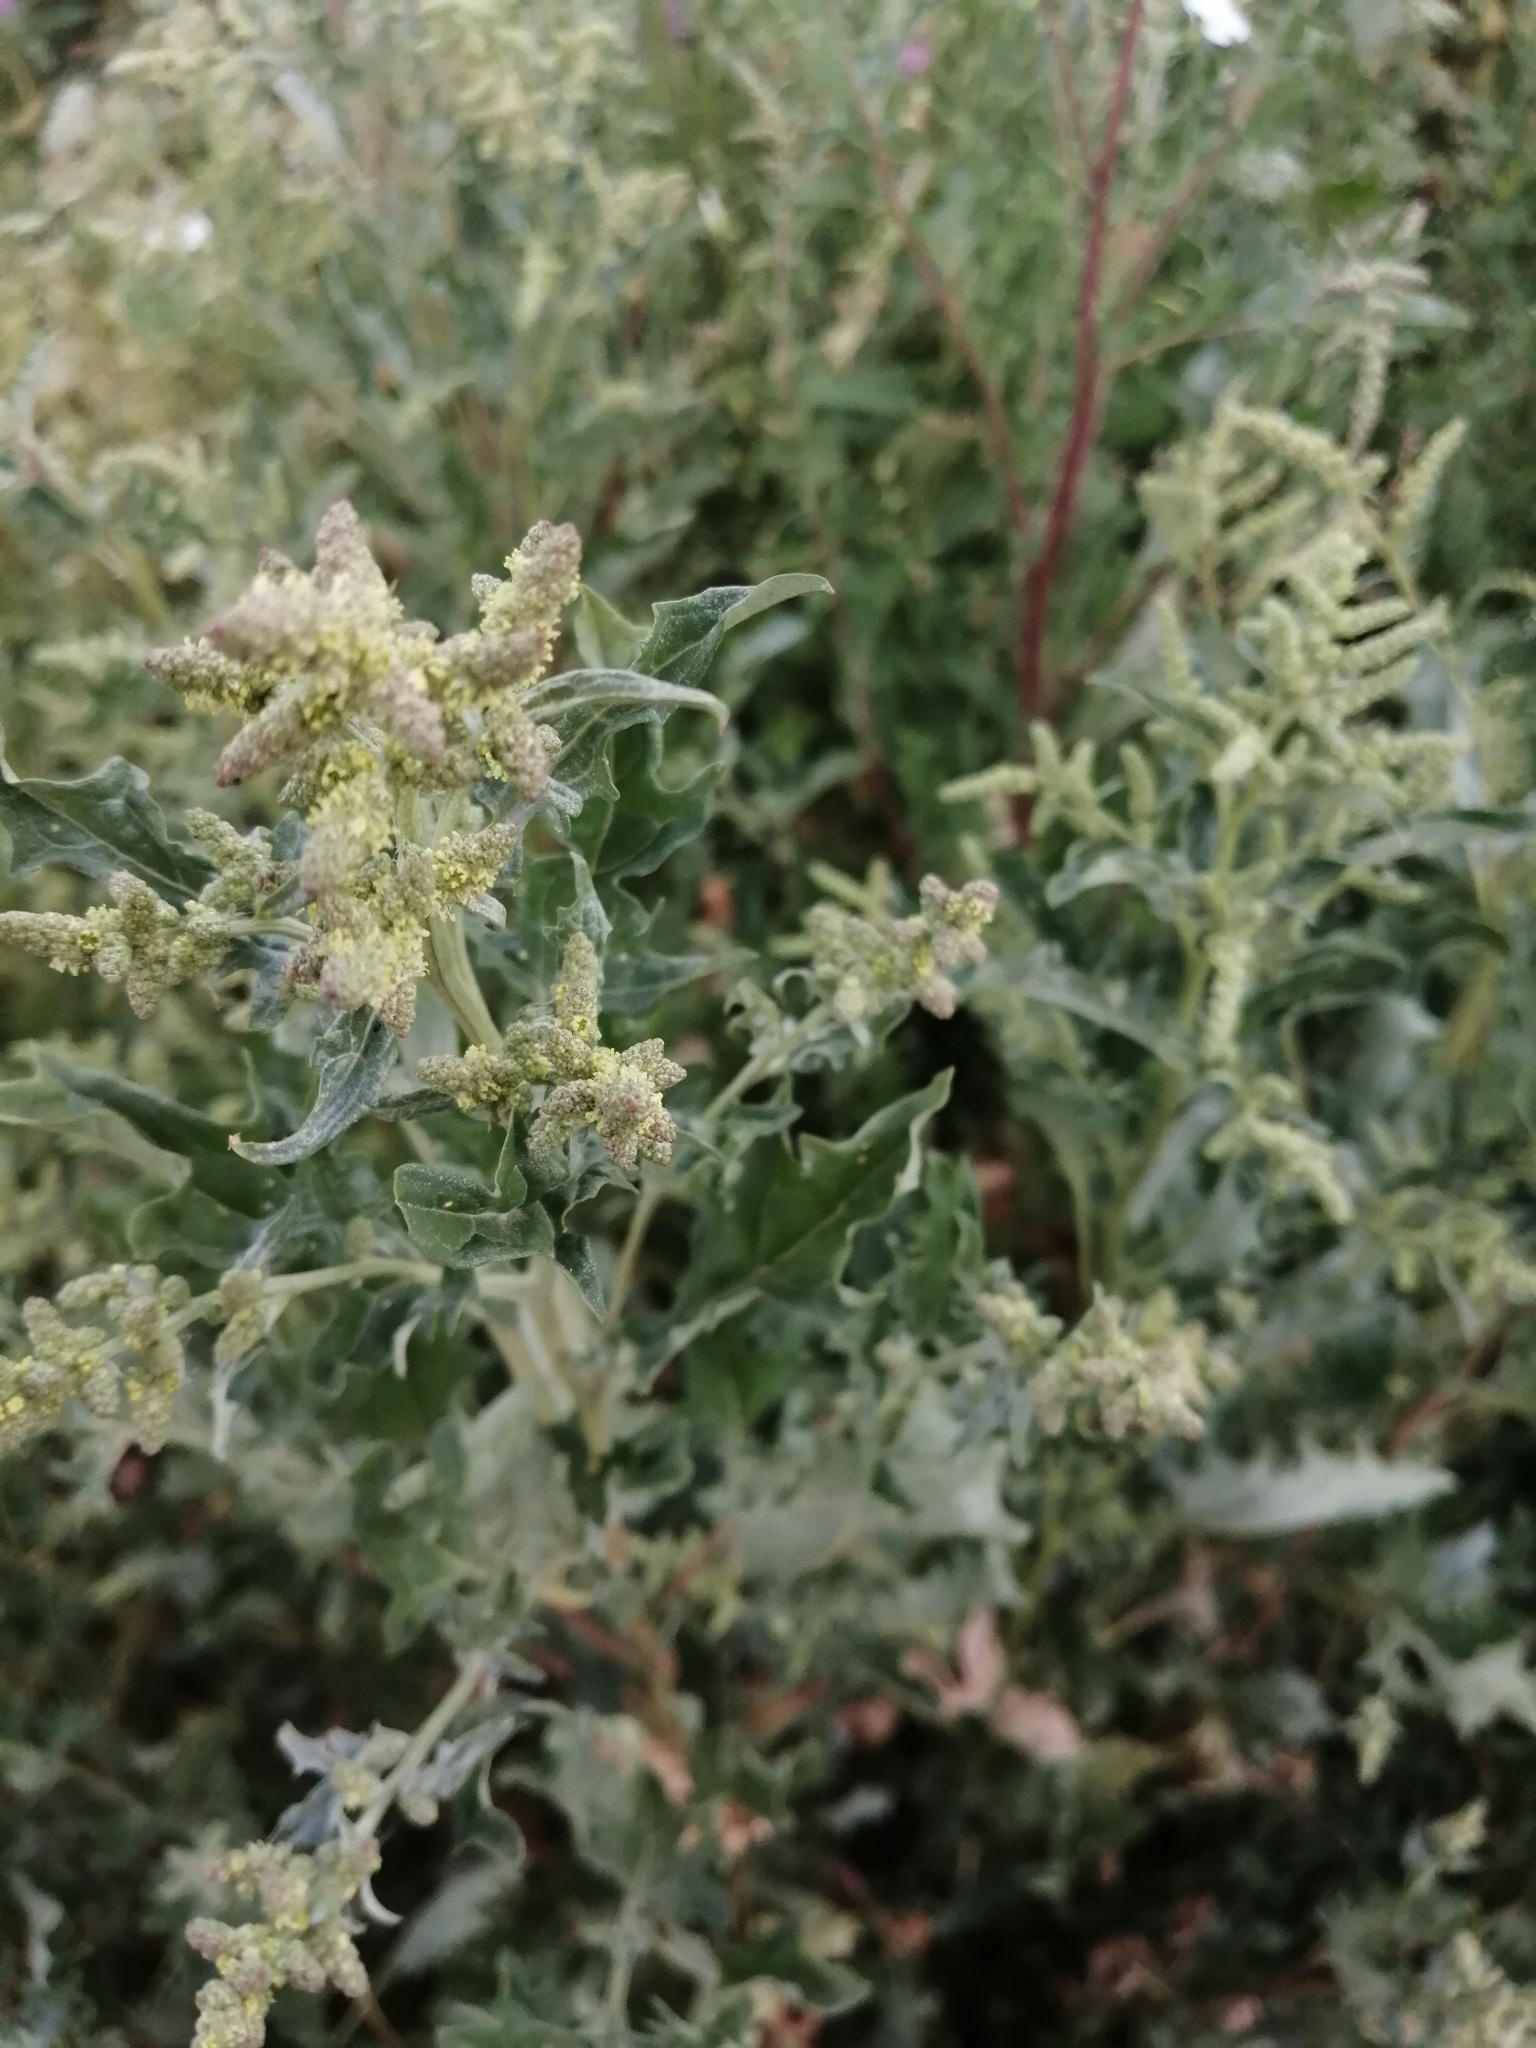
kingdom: Plantae
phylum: Tracheophyta
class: Magnoliopsida
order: Caryophyllales
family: Amaranthaceae
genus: Atriplex
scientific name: Atriplex tatarica
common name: Tatarian orache
